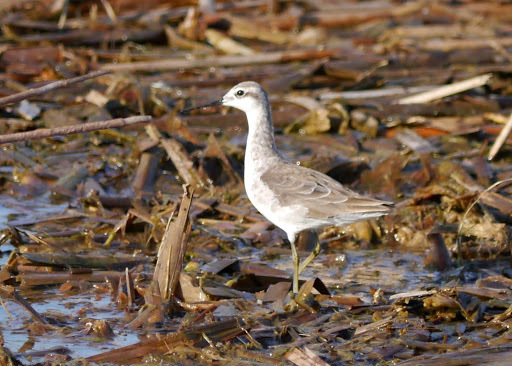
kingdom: Animalia
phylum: Chordata
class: Aves
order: Charadriiformes
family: Scolopacidae
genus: Phalaropus
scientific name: Phalaropus tricolor
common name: Wilson's phalarope
